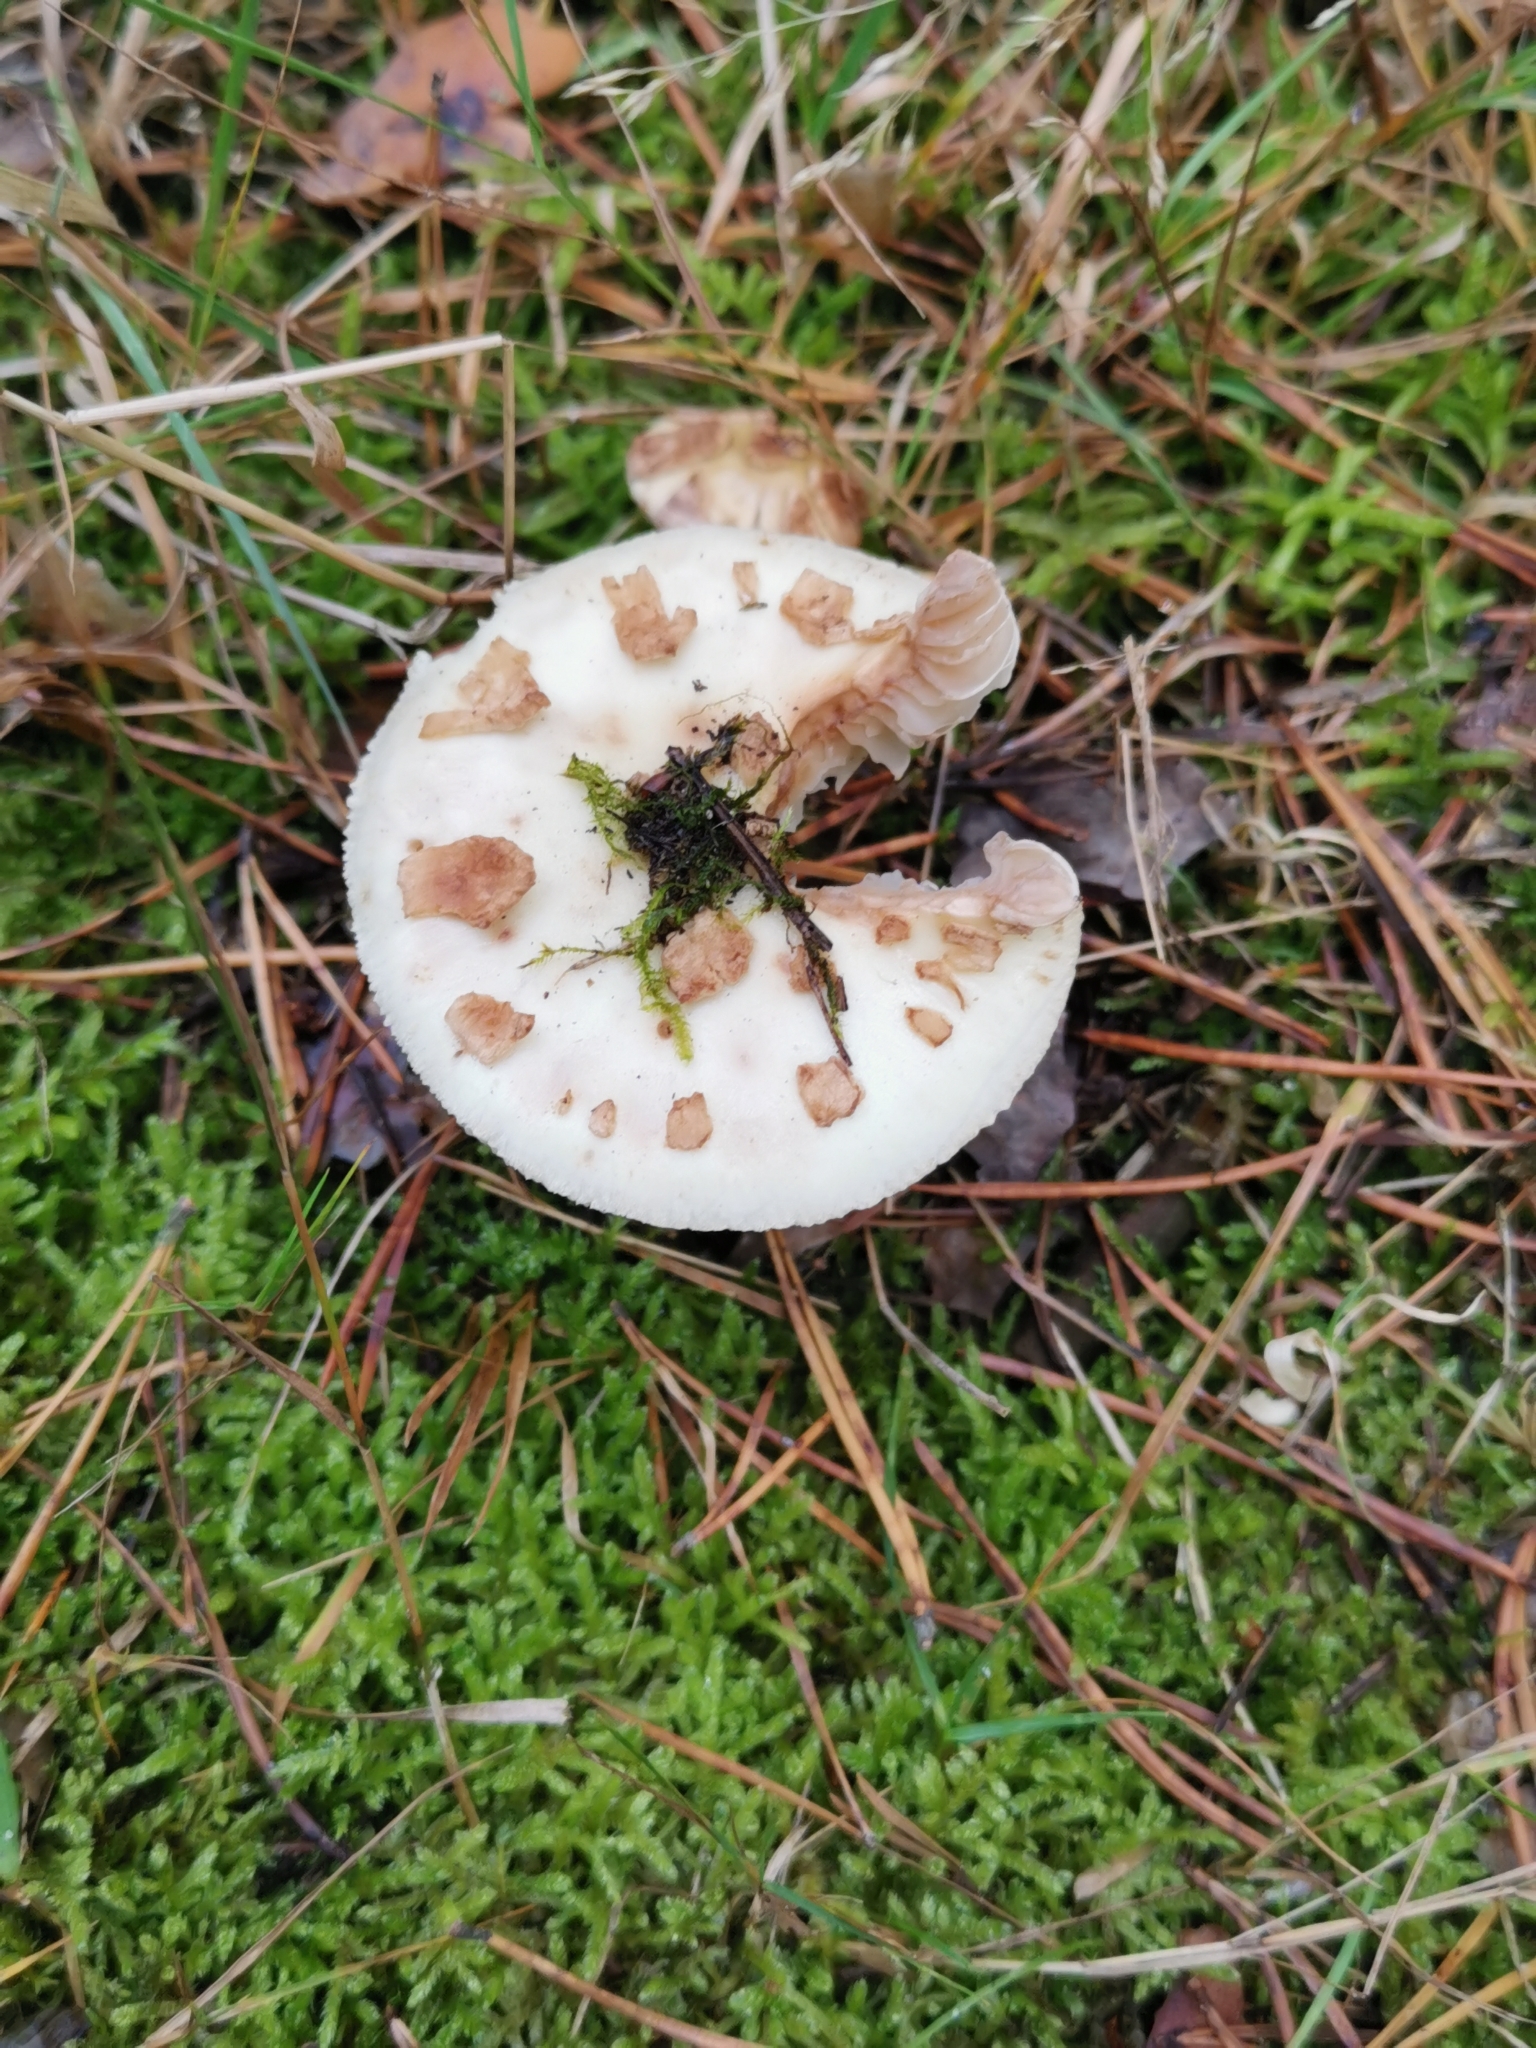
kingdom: Fungi
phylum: Basidiomycota
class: Agaricomycetes
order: Agaricales
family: Amanitaceae
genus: Amanita
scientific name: Amanita citrina
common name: False death-cap
